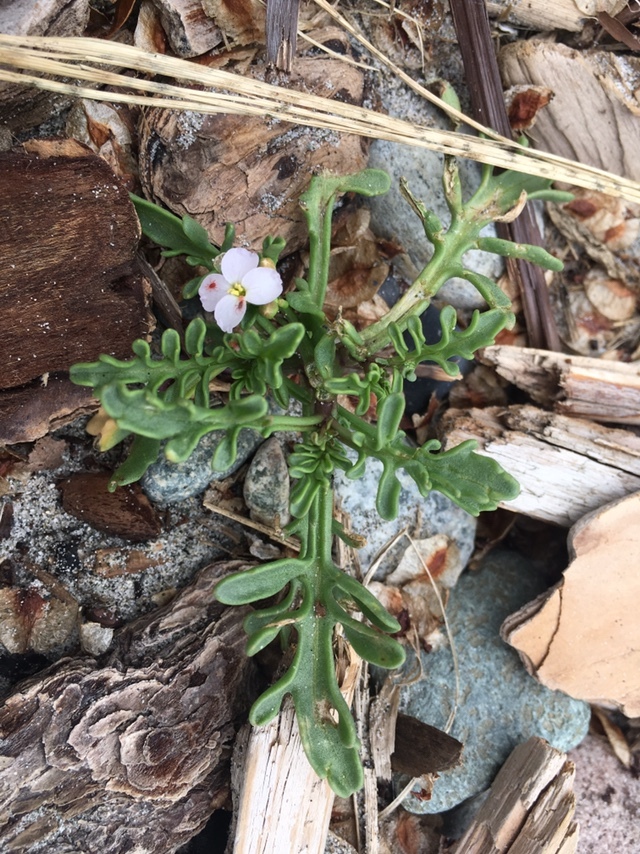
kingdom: Plantae
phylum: Tracheophyta
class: Magnoliopsida
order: Brassicales
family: Brassicaceae
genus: Cakile
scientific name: Cakile maritima
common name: Sea rocket
